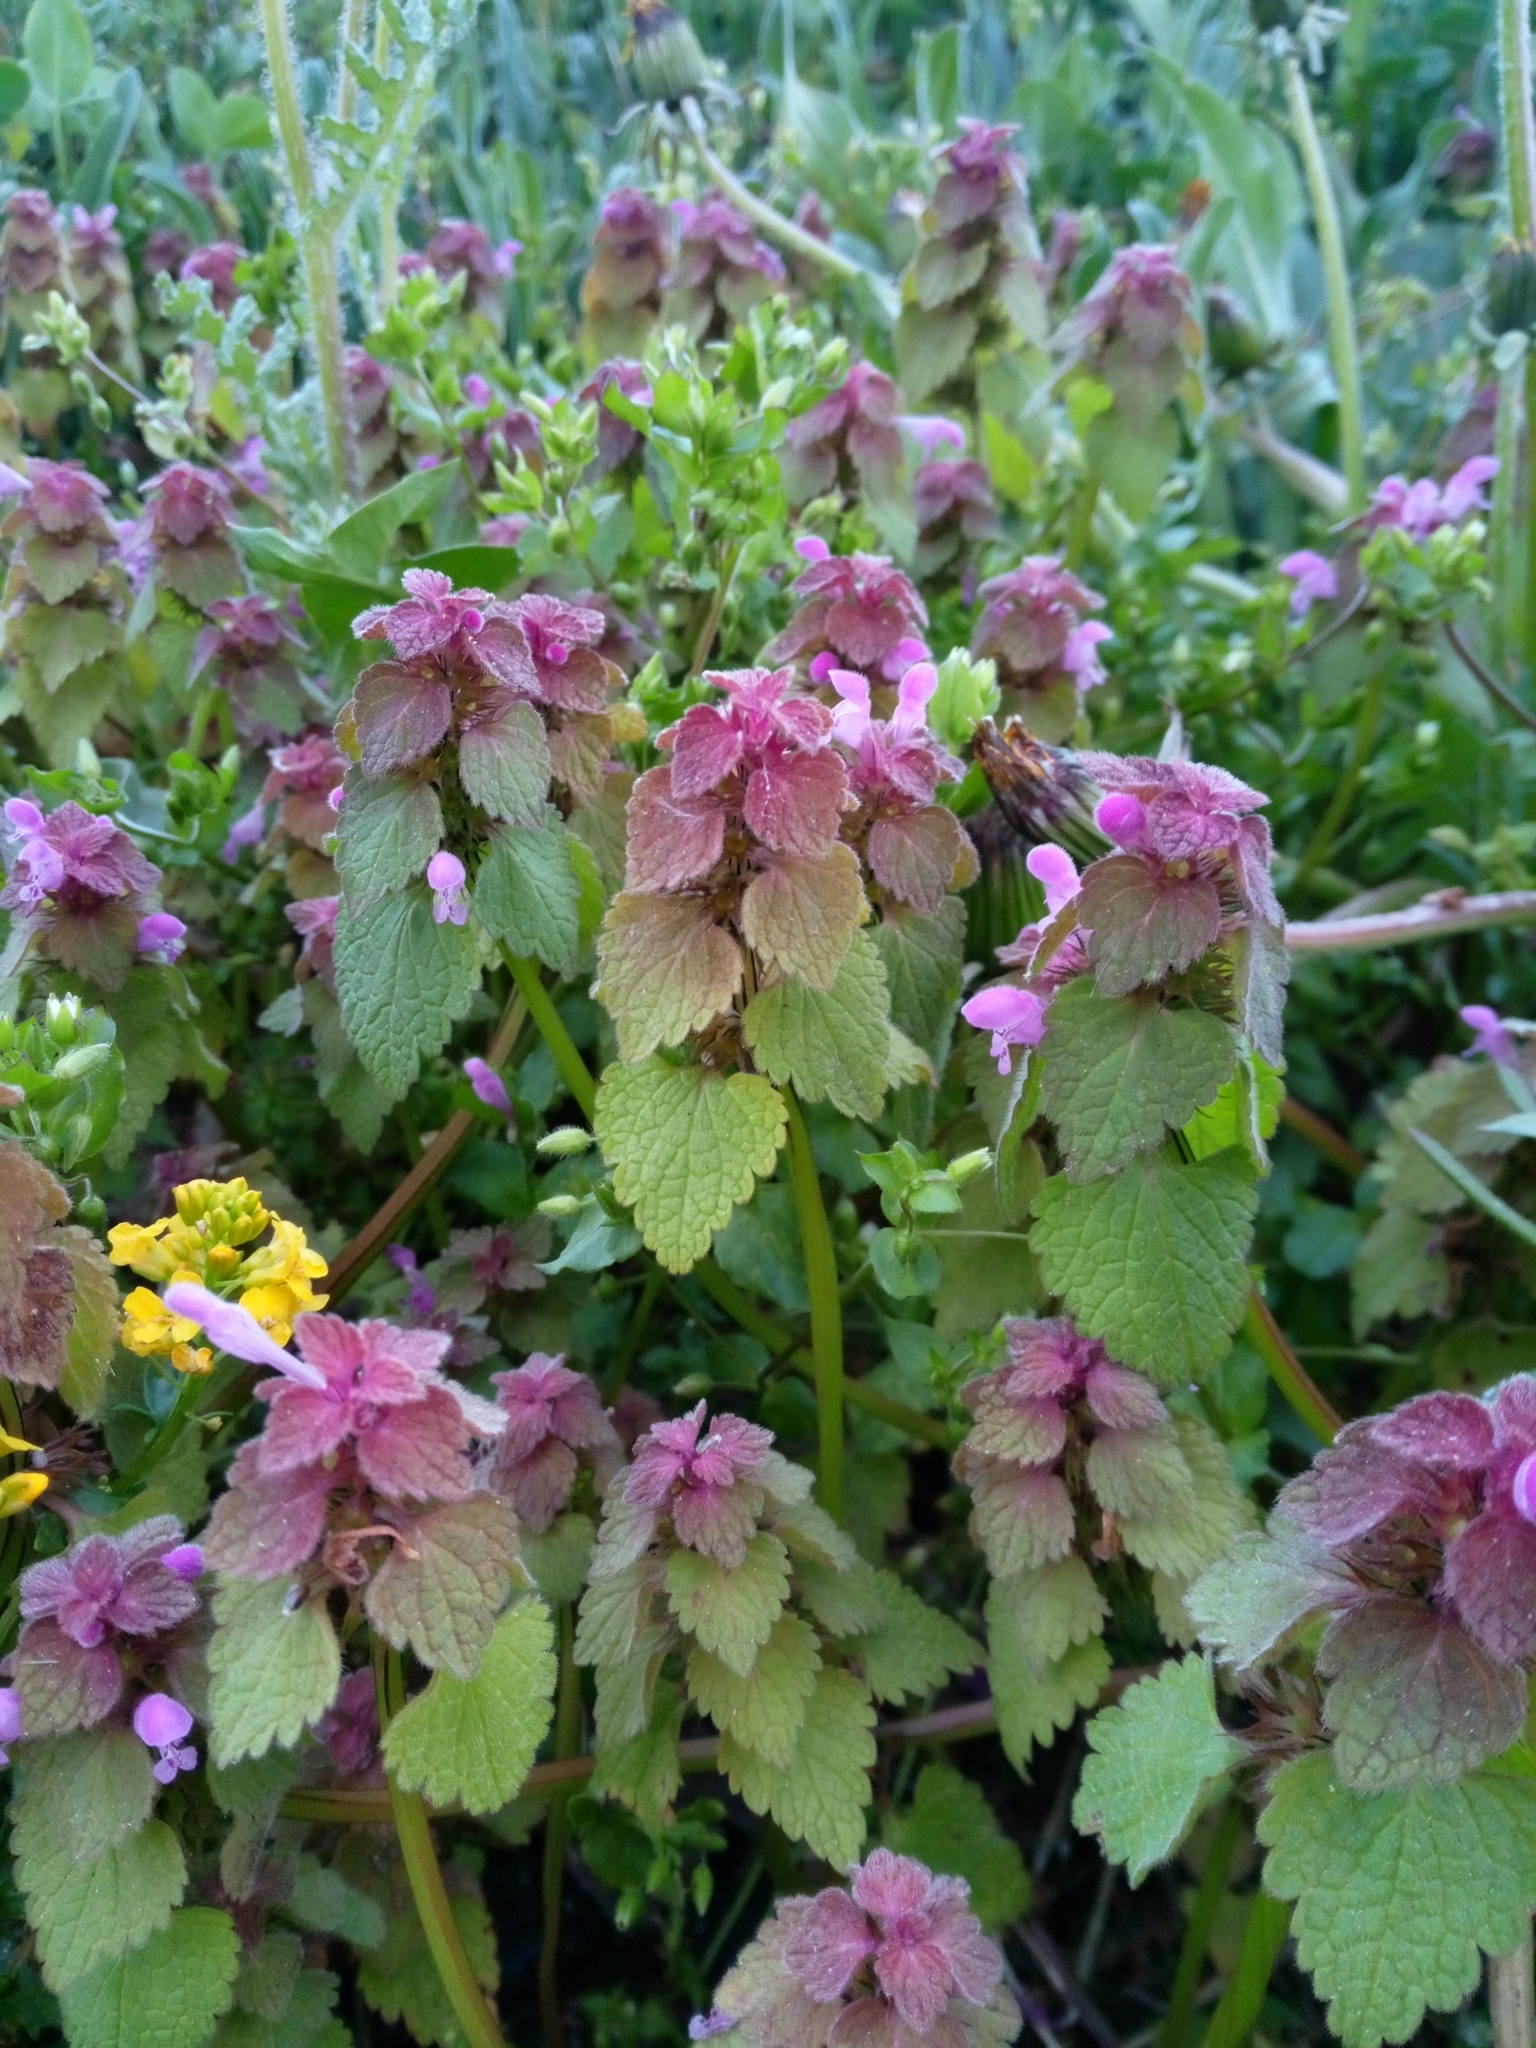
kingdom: Plantae
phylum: Tracheophyta
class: Magnoliopsida
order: Lamiales
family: Lamiaceae
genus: Lamium
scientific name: Lamium purpureum
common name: Red dead-nettle
